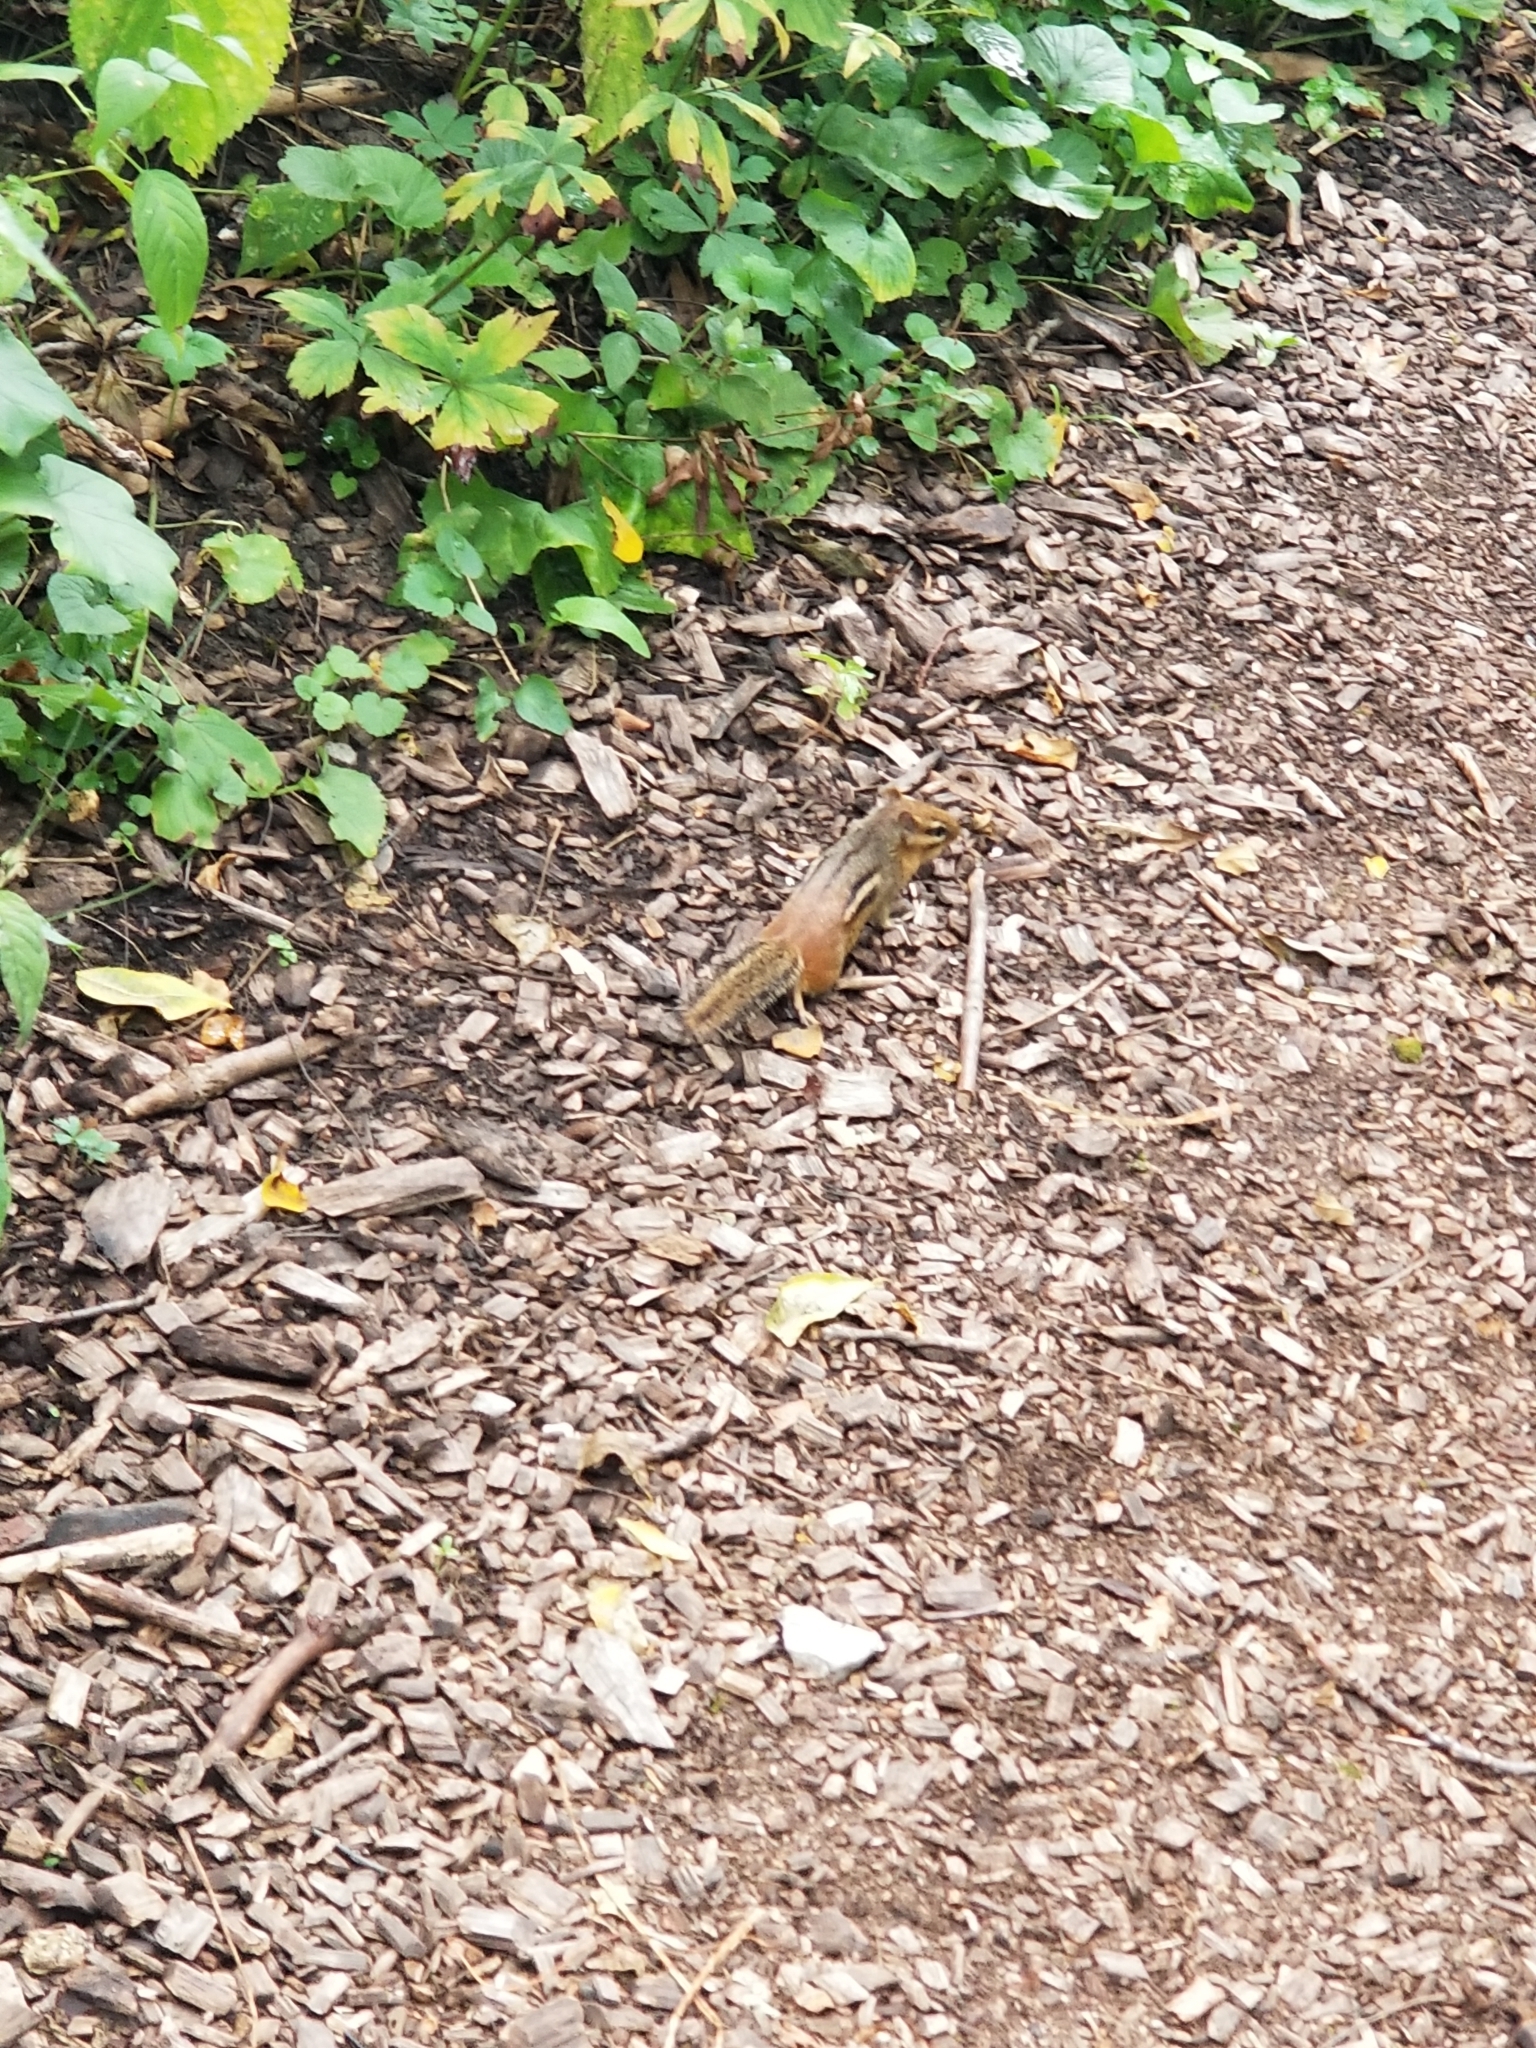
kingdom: Animalia
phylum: Chordata
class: Mammalia
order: Rodentia
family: Sciuridae
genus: Tamias
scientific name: Tamias striatus
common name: Eastern chipmunk
